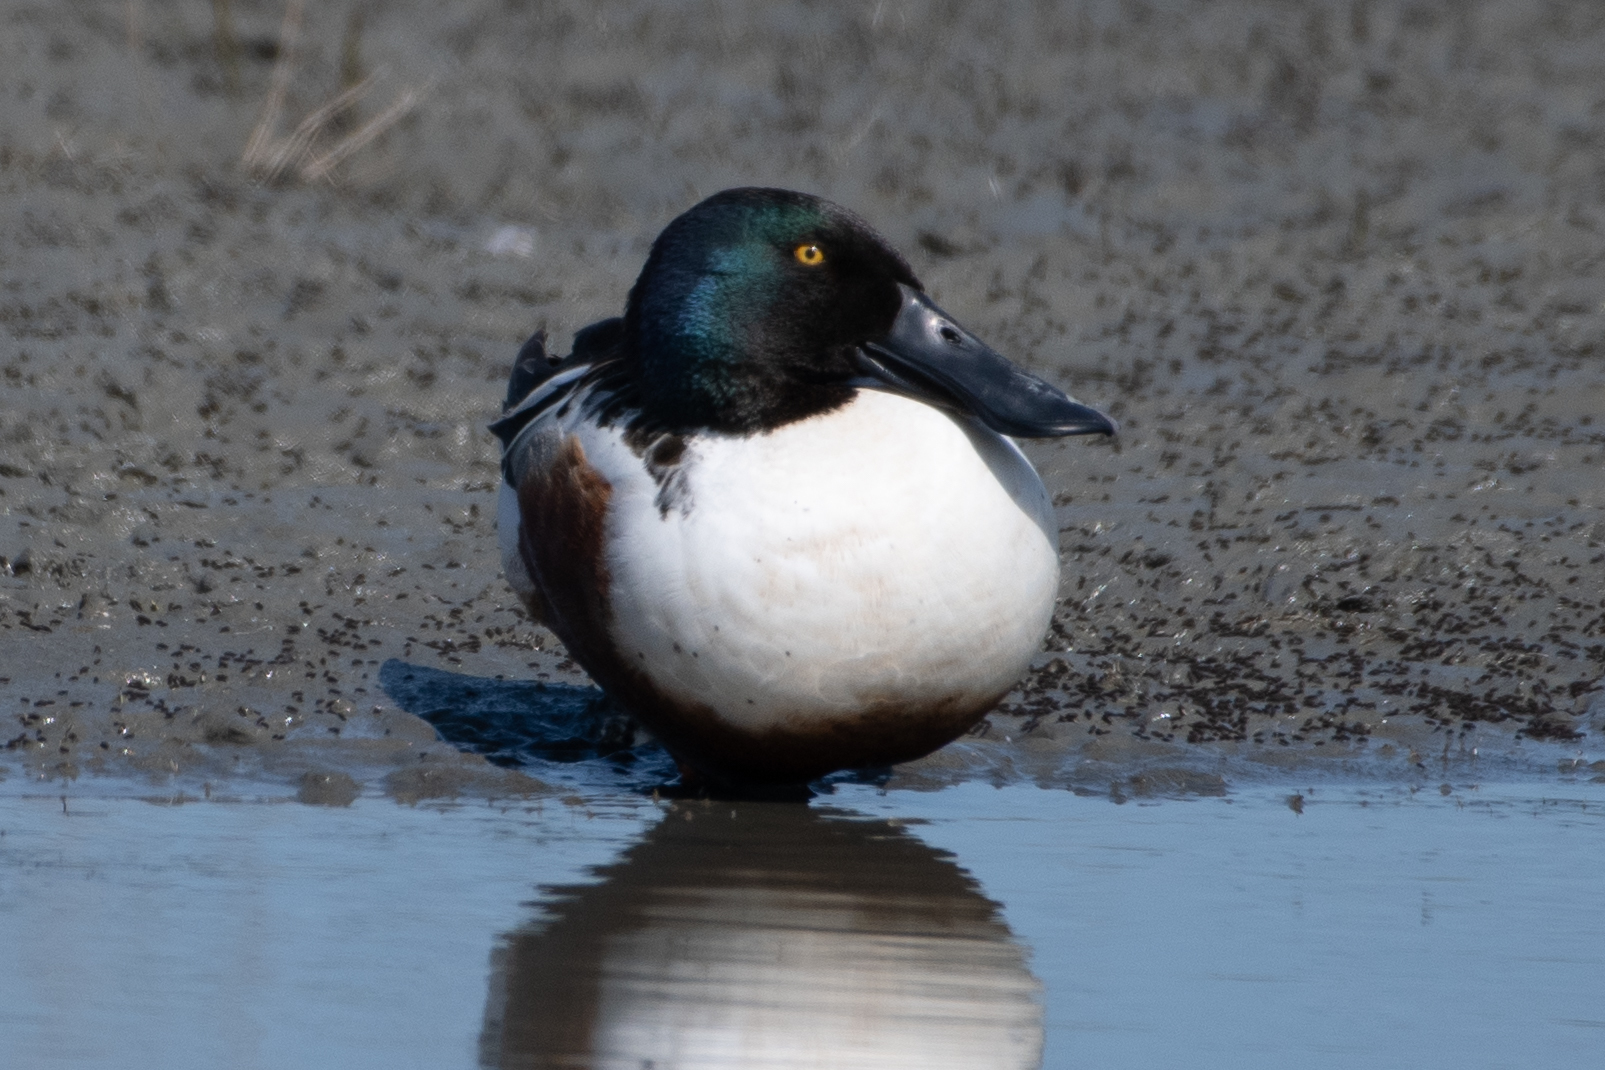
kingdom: Animalia
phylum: Chordata
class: Aves
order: Anseriformes
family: Anatidae
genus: Spatula
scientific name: Spatula clypeata
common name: Northern shoveler
